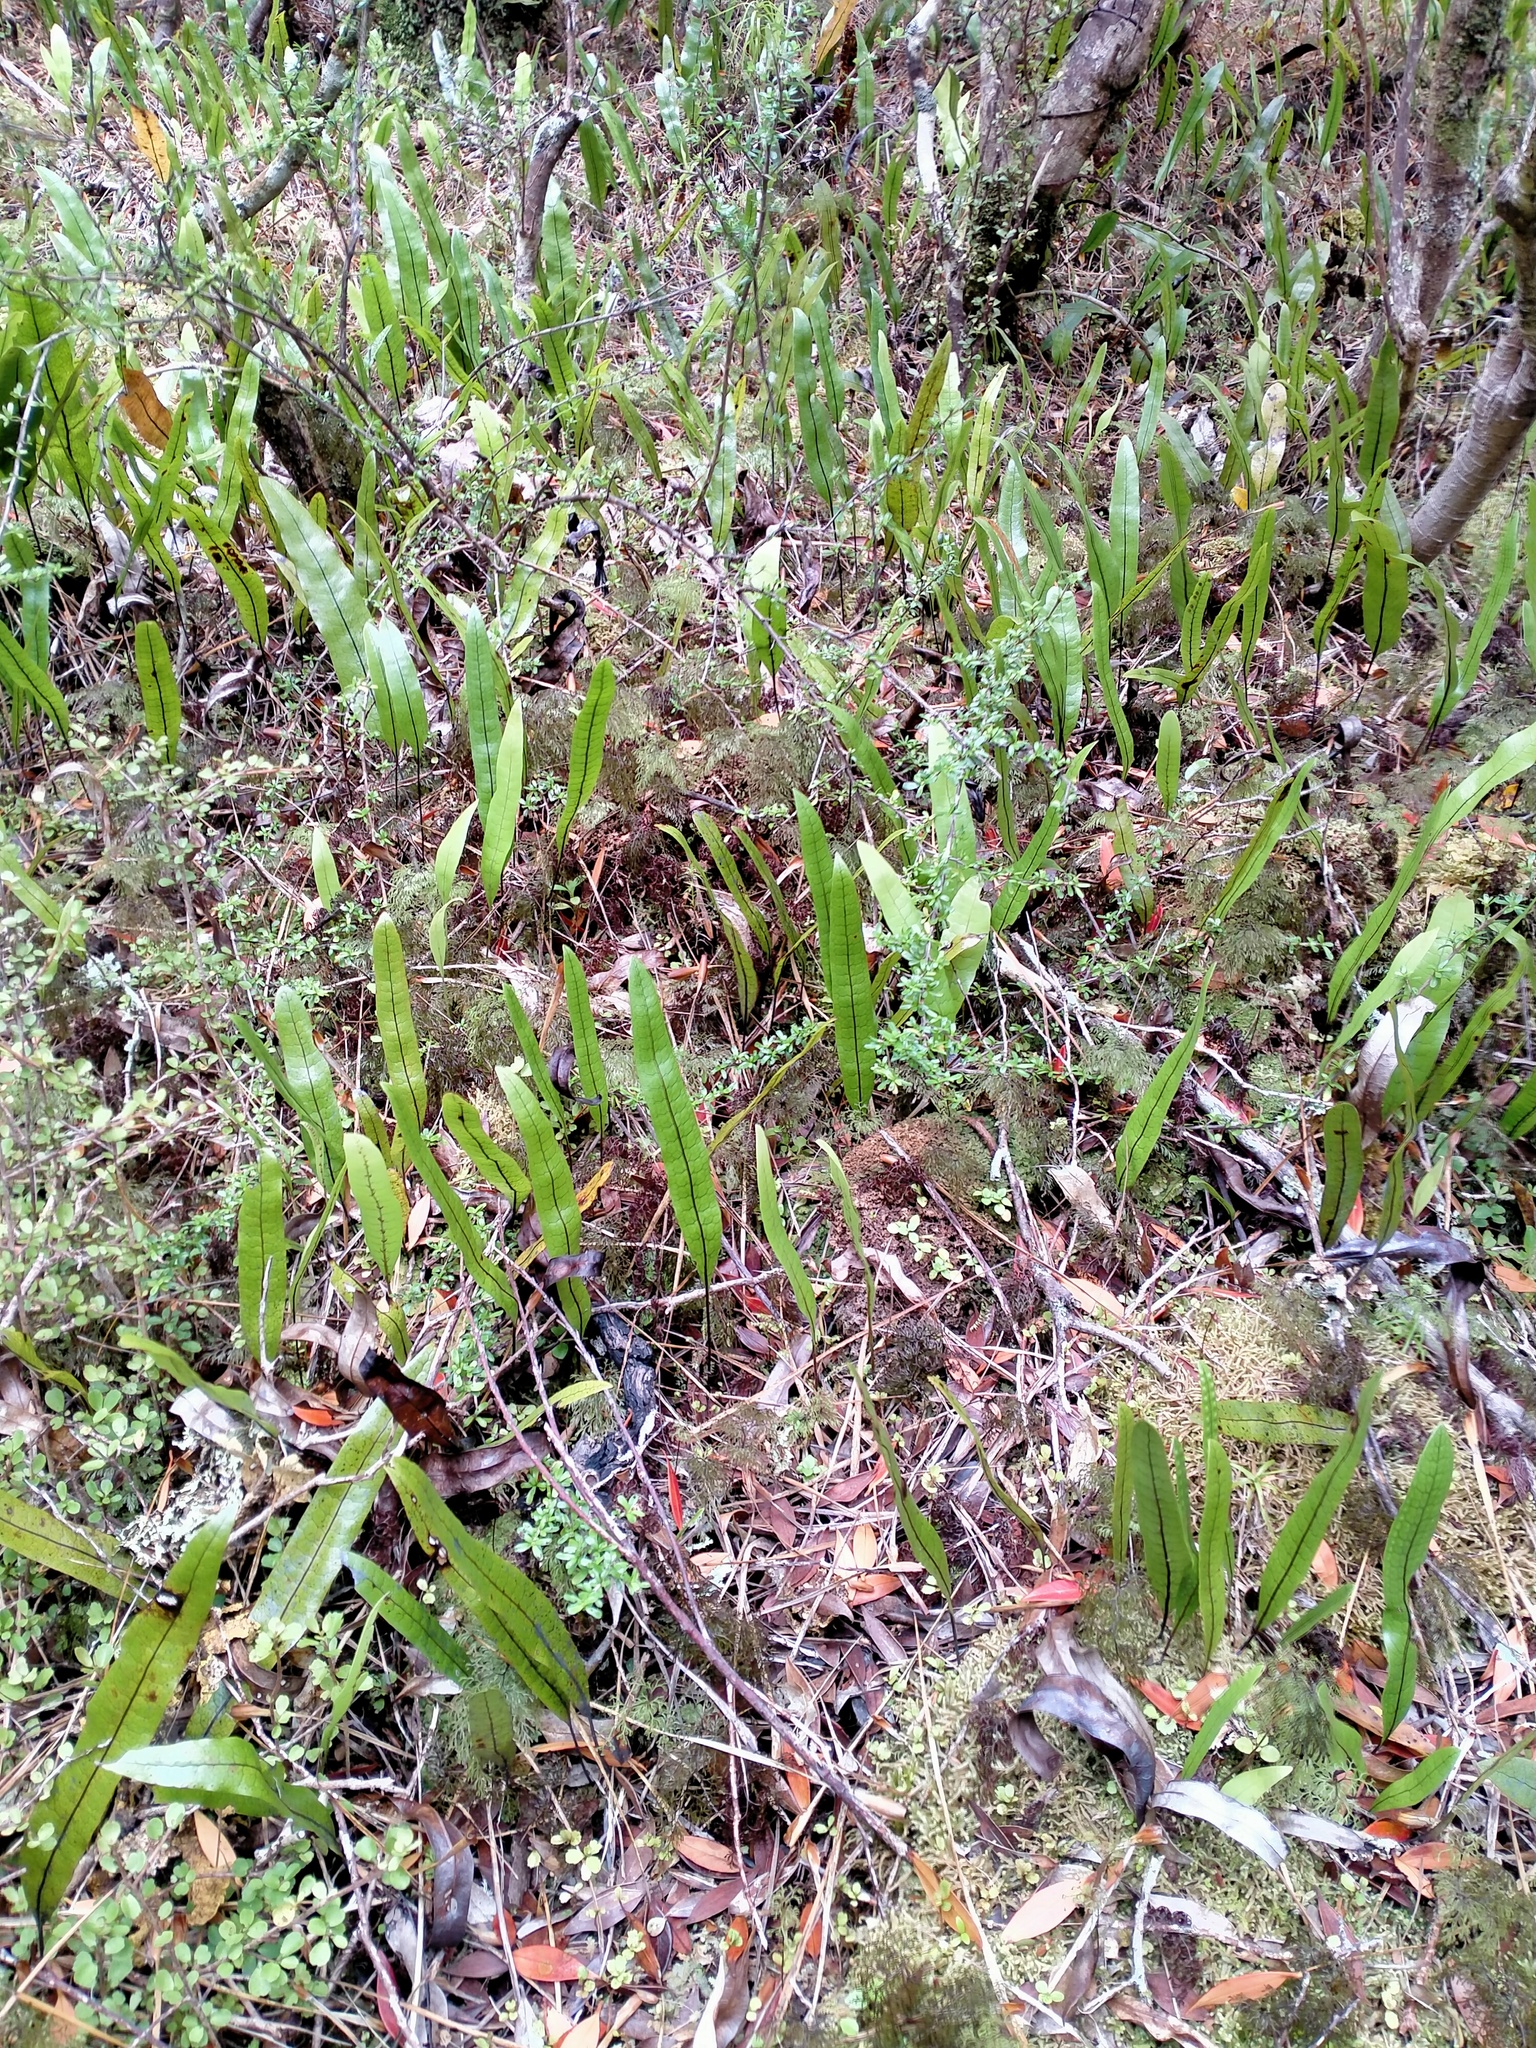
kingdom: Plantae
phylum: Tracheophyta
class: Polypodiopsida
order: Polypodiales
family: Polypodiaceae
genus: Lecanopteris
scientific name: Lecanopteris pustulata
